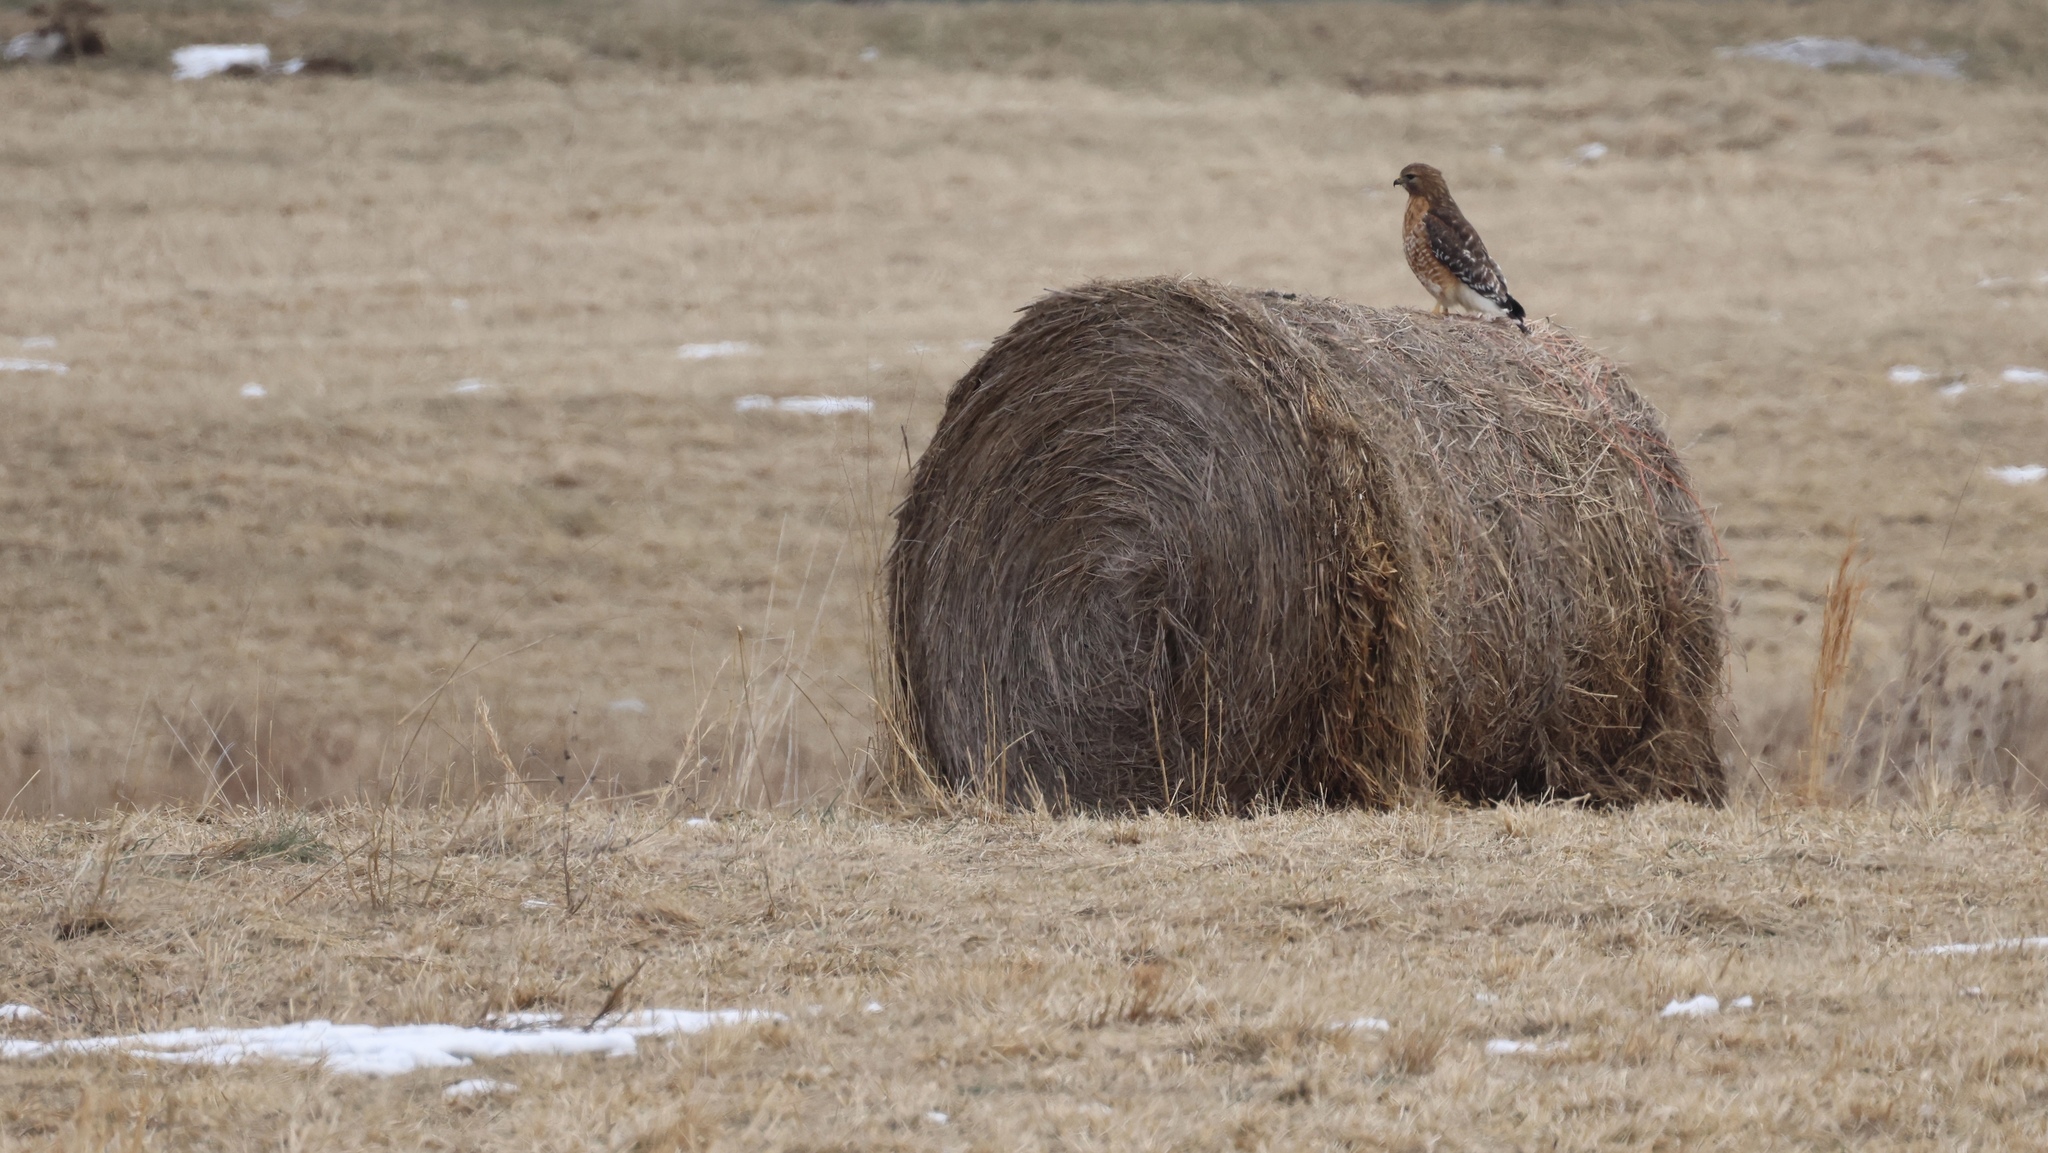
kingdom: Animalia
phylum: Chordata
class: Aves
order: Accipitriformes
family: Accipitridae
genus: Buteo
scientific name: Buteo lineatus
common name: Red-shouldered hawk
